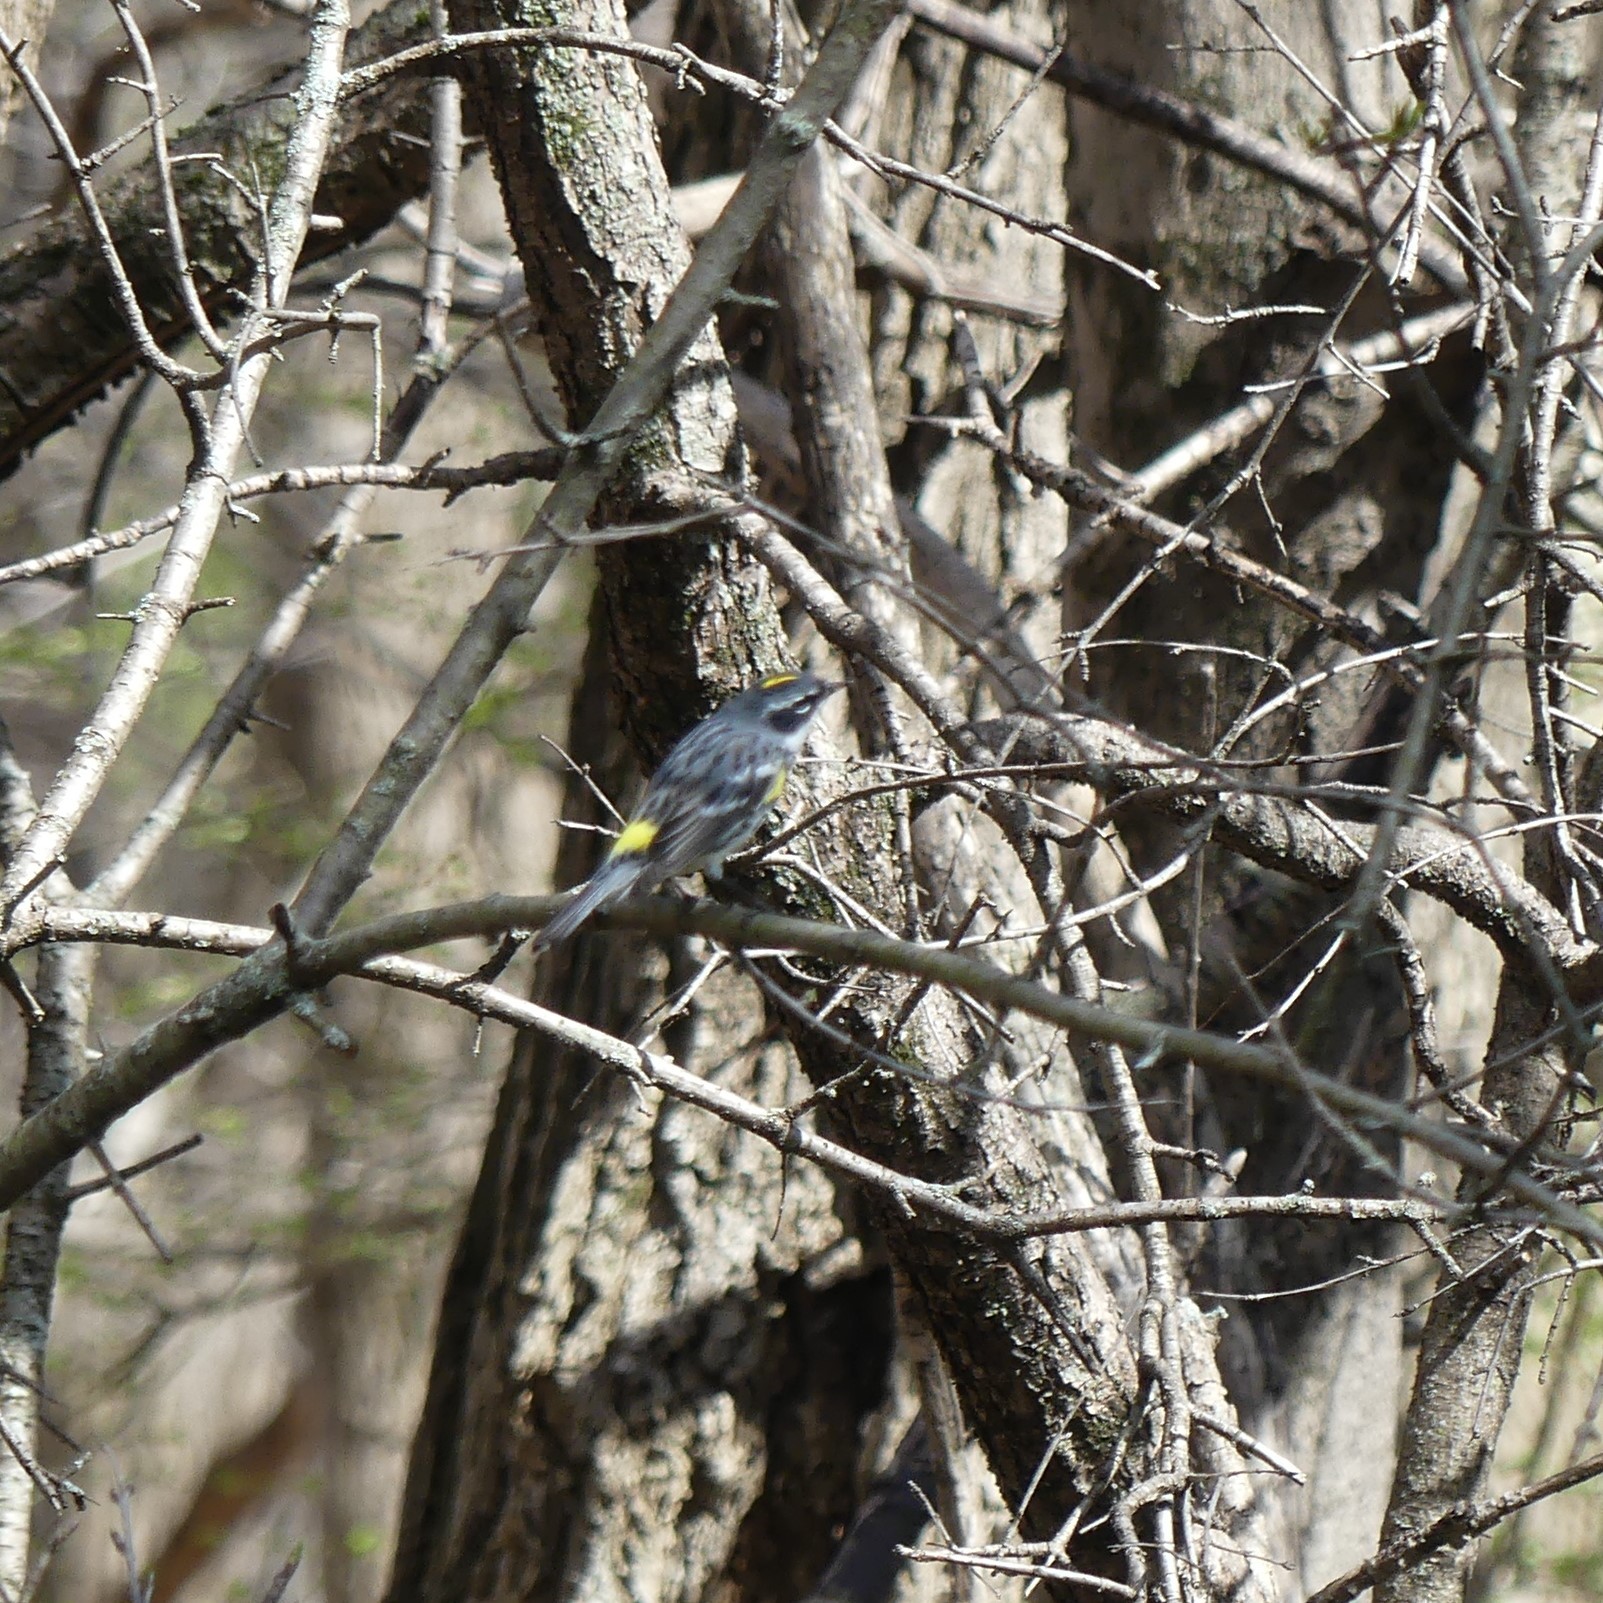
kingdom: Animalia
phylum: Chordata
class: Aves
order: Passeriformes
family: Parulidae
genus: Setophaga
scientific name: Setophaga coronata
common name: Myrtle warbler
